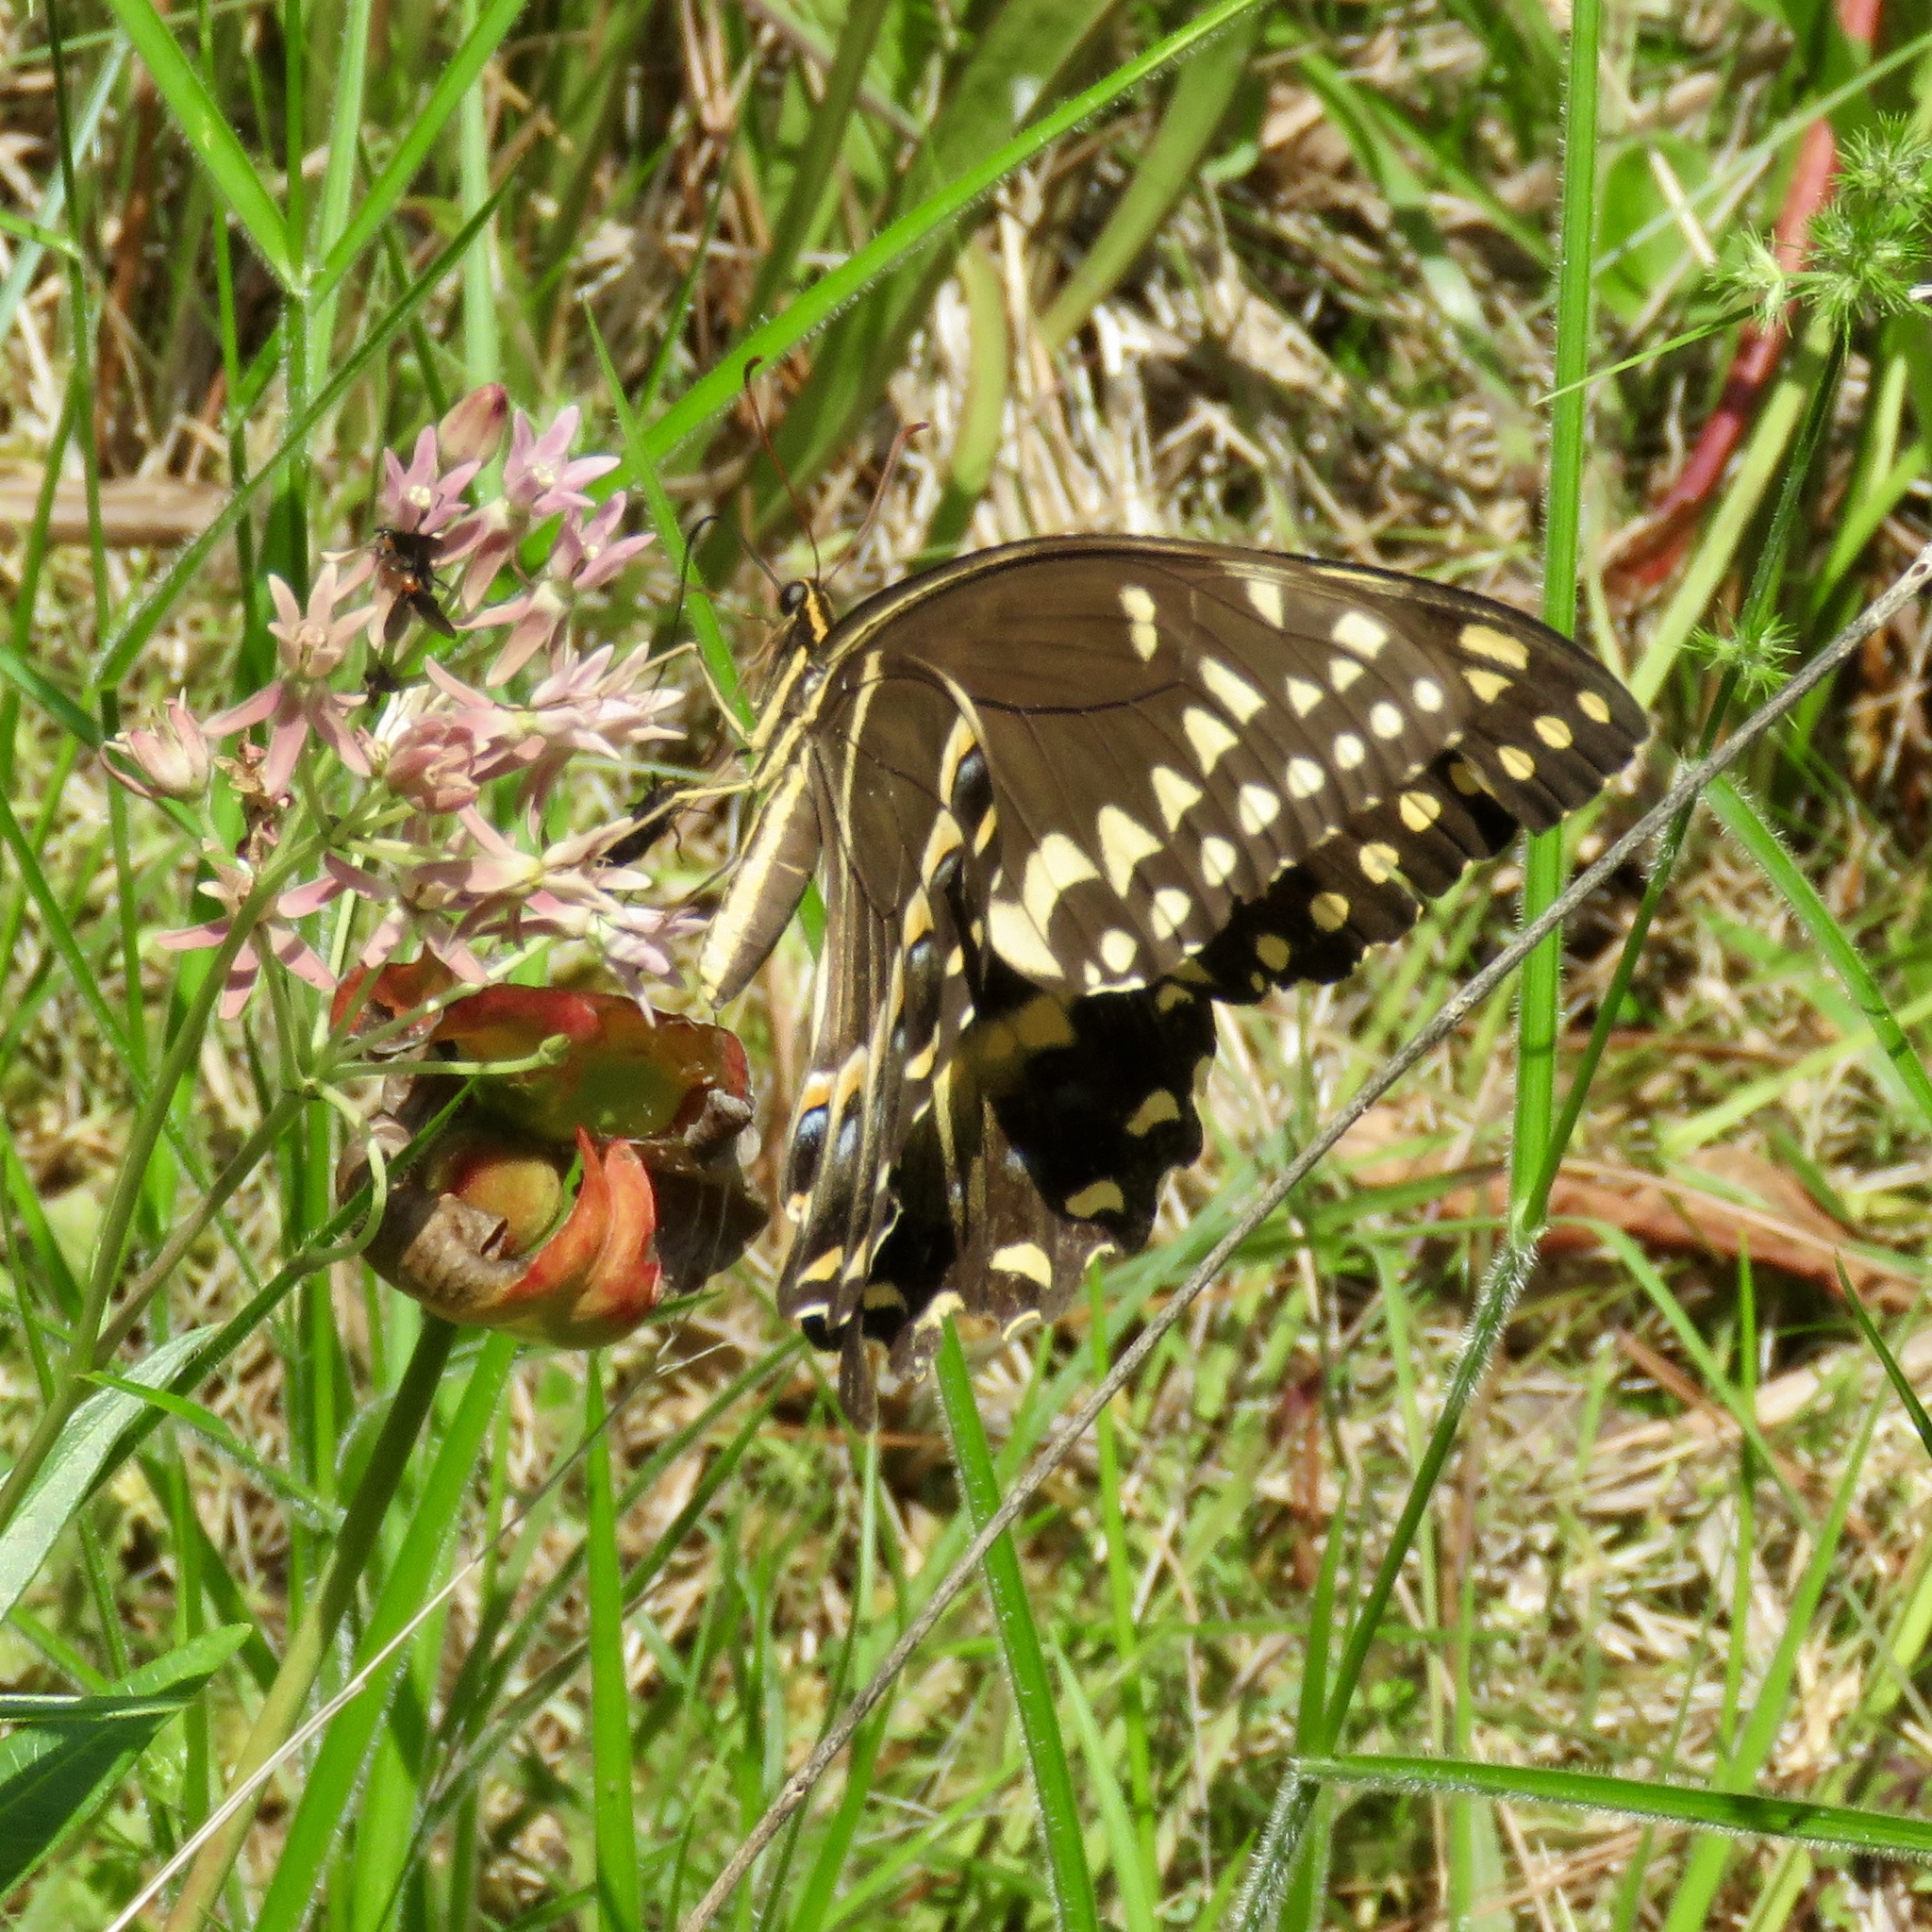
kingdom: Animalia
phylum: Arthropoda
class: Insecta
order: Lepidoptera
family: Papilionidae
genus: Papilio
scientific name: Papilio palamedes
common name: Palamedes swallowtail
